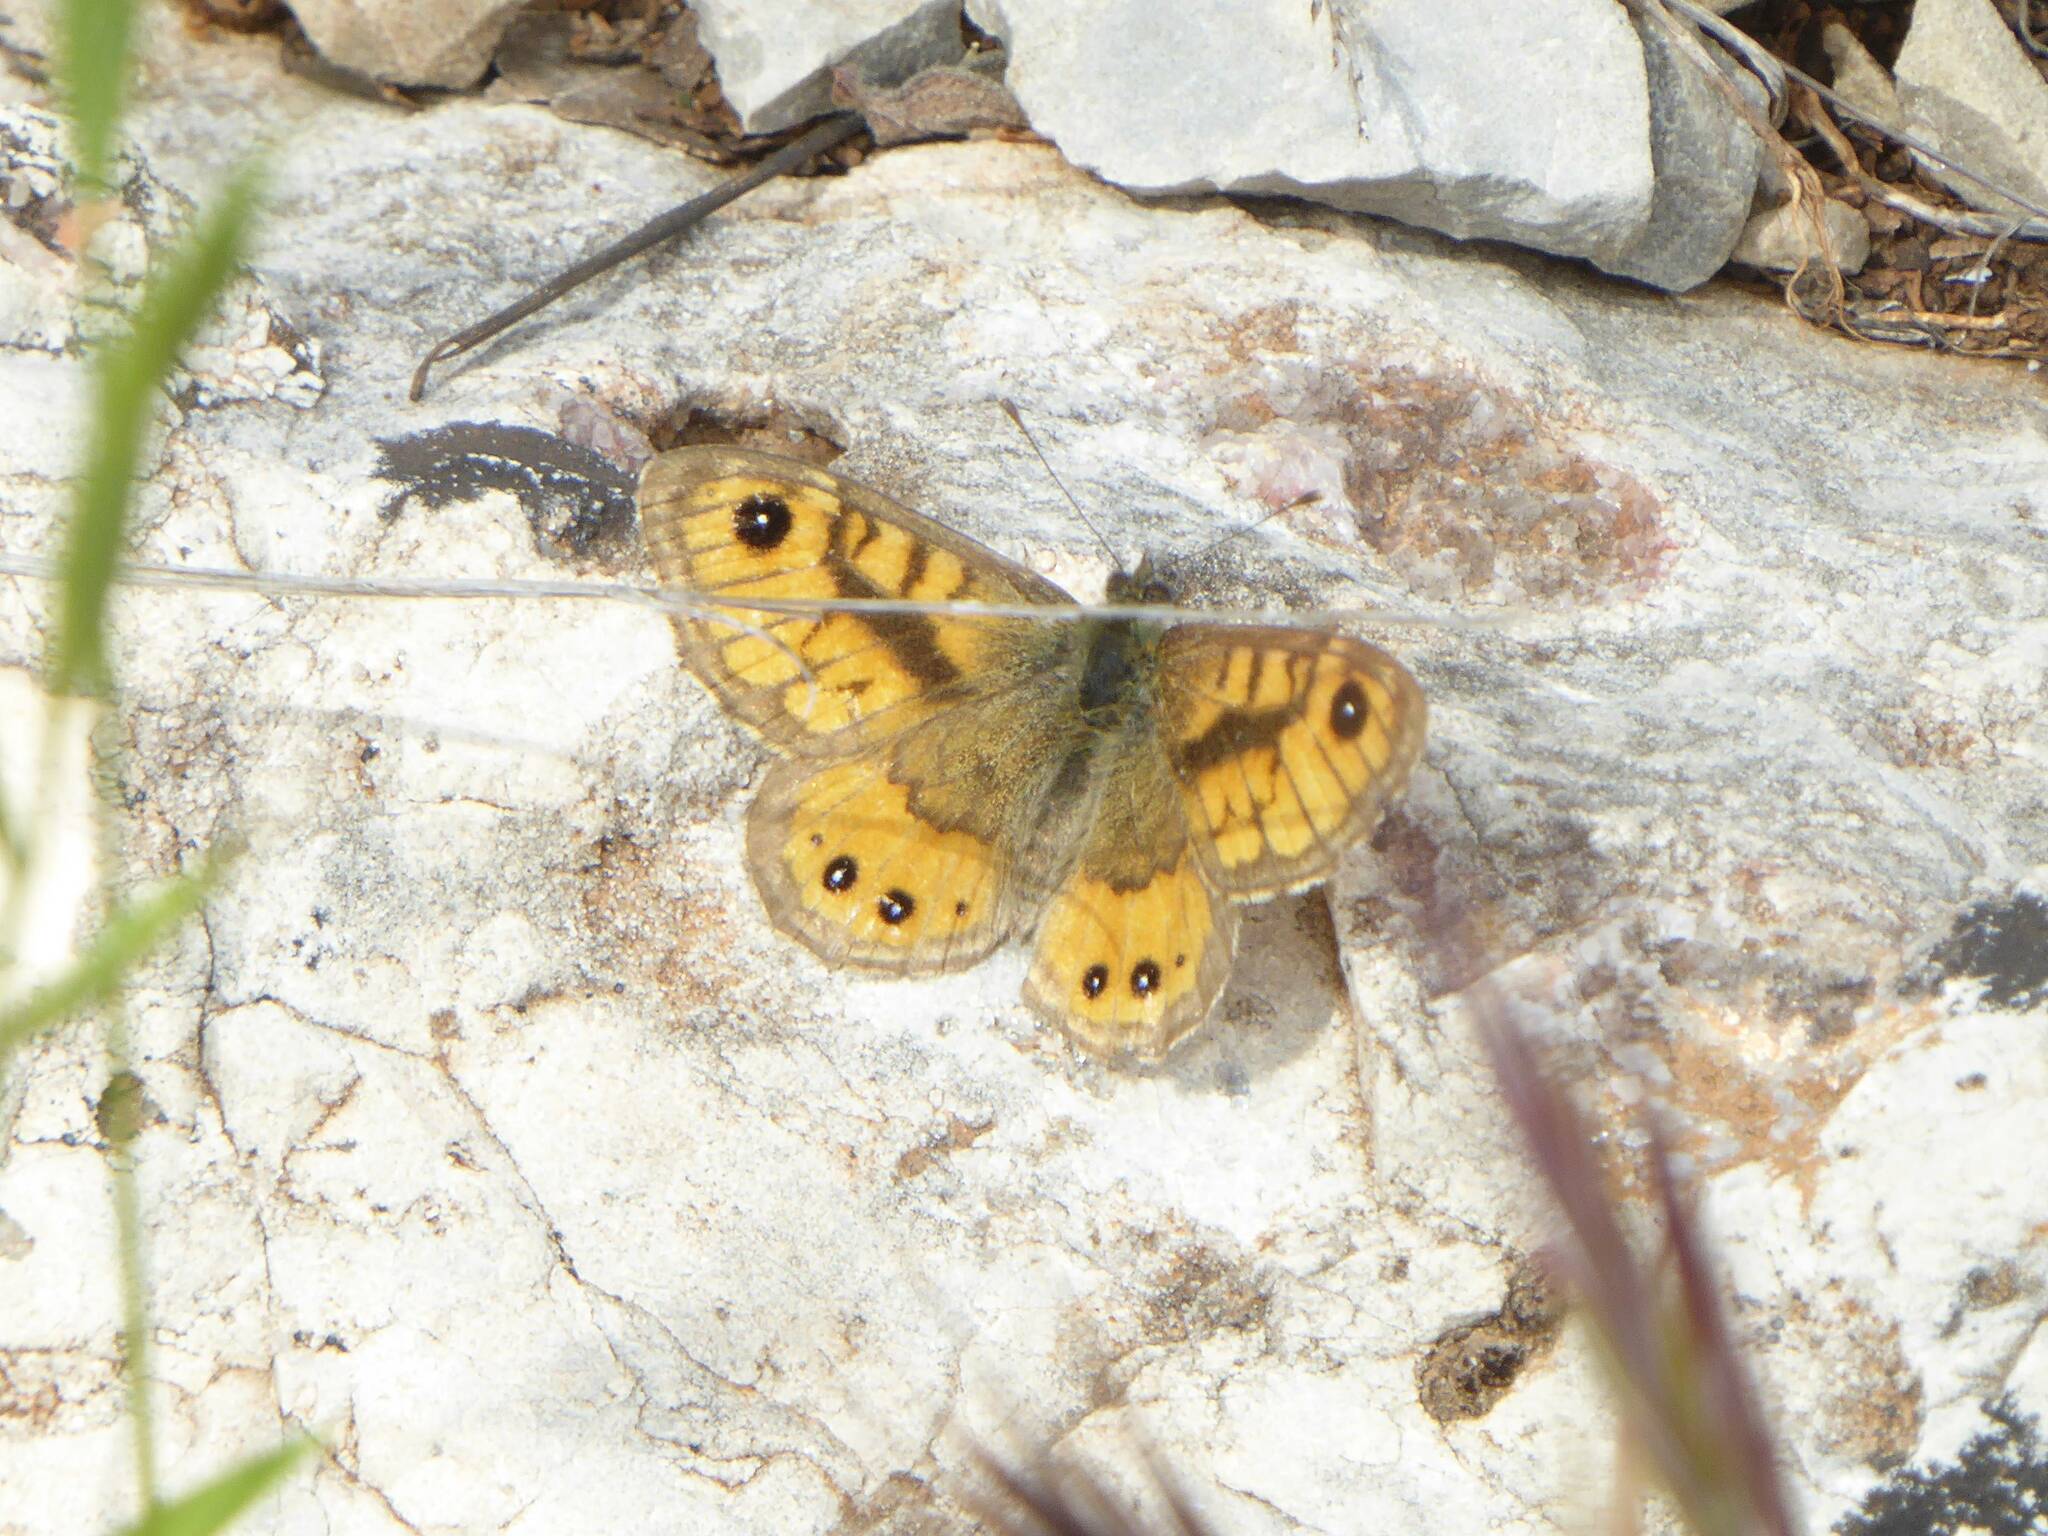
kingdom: Animalia
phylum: Arthropoda
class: Insecta
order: Lepidoptera
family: Nymphalidae
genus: Pararge
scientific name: Pararge Lasiommata paramegaera
